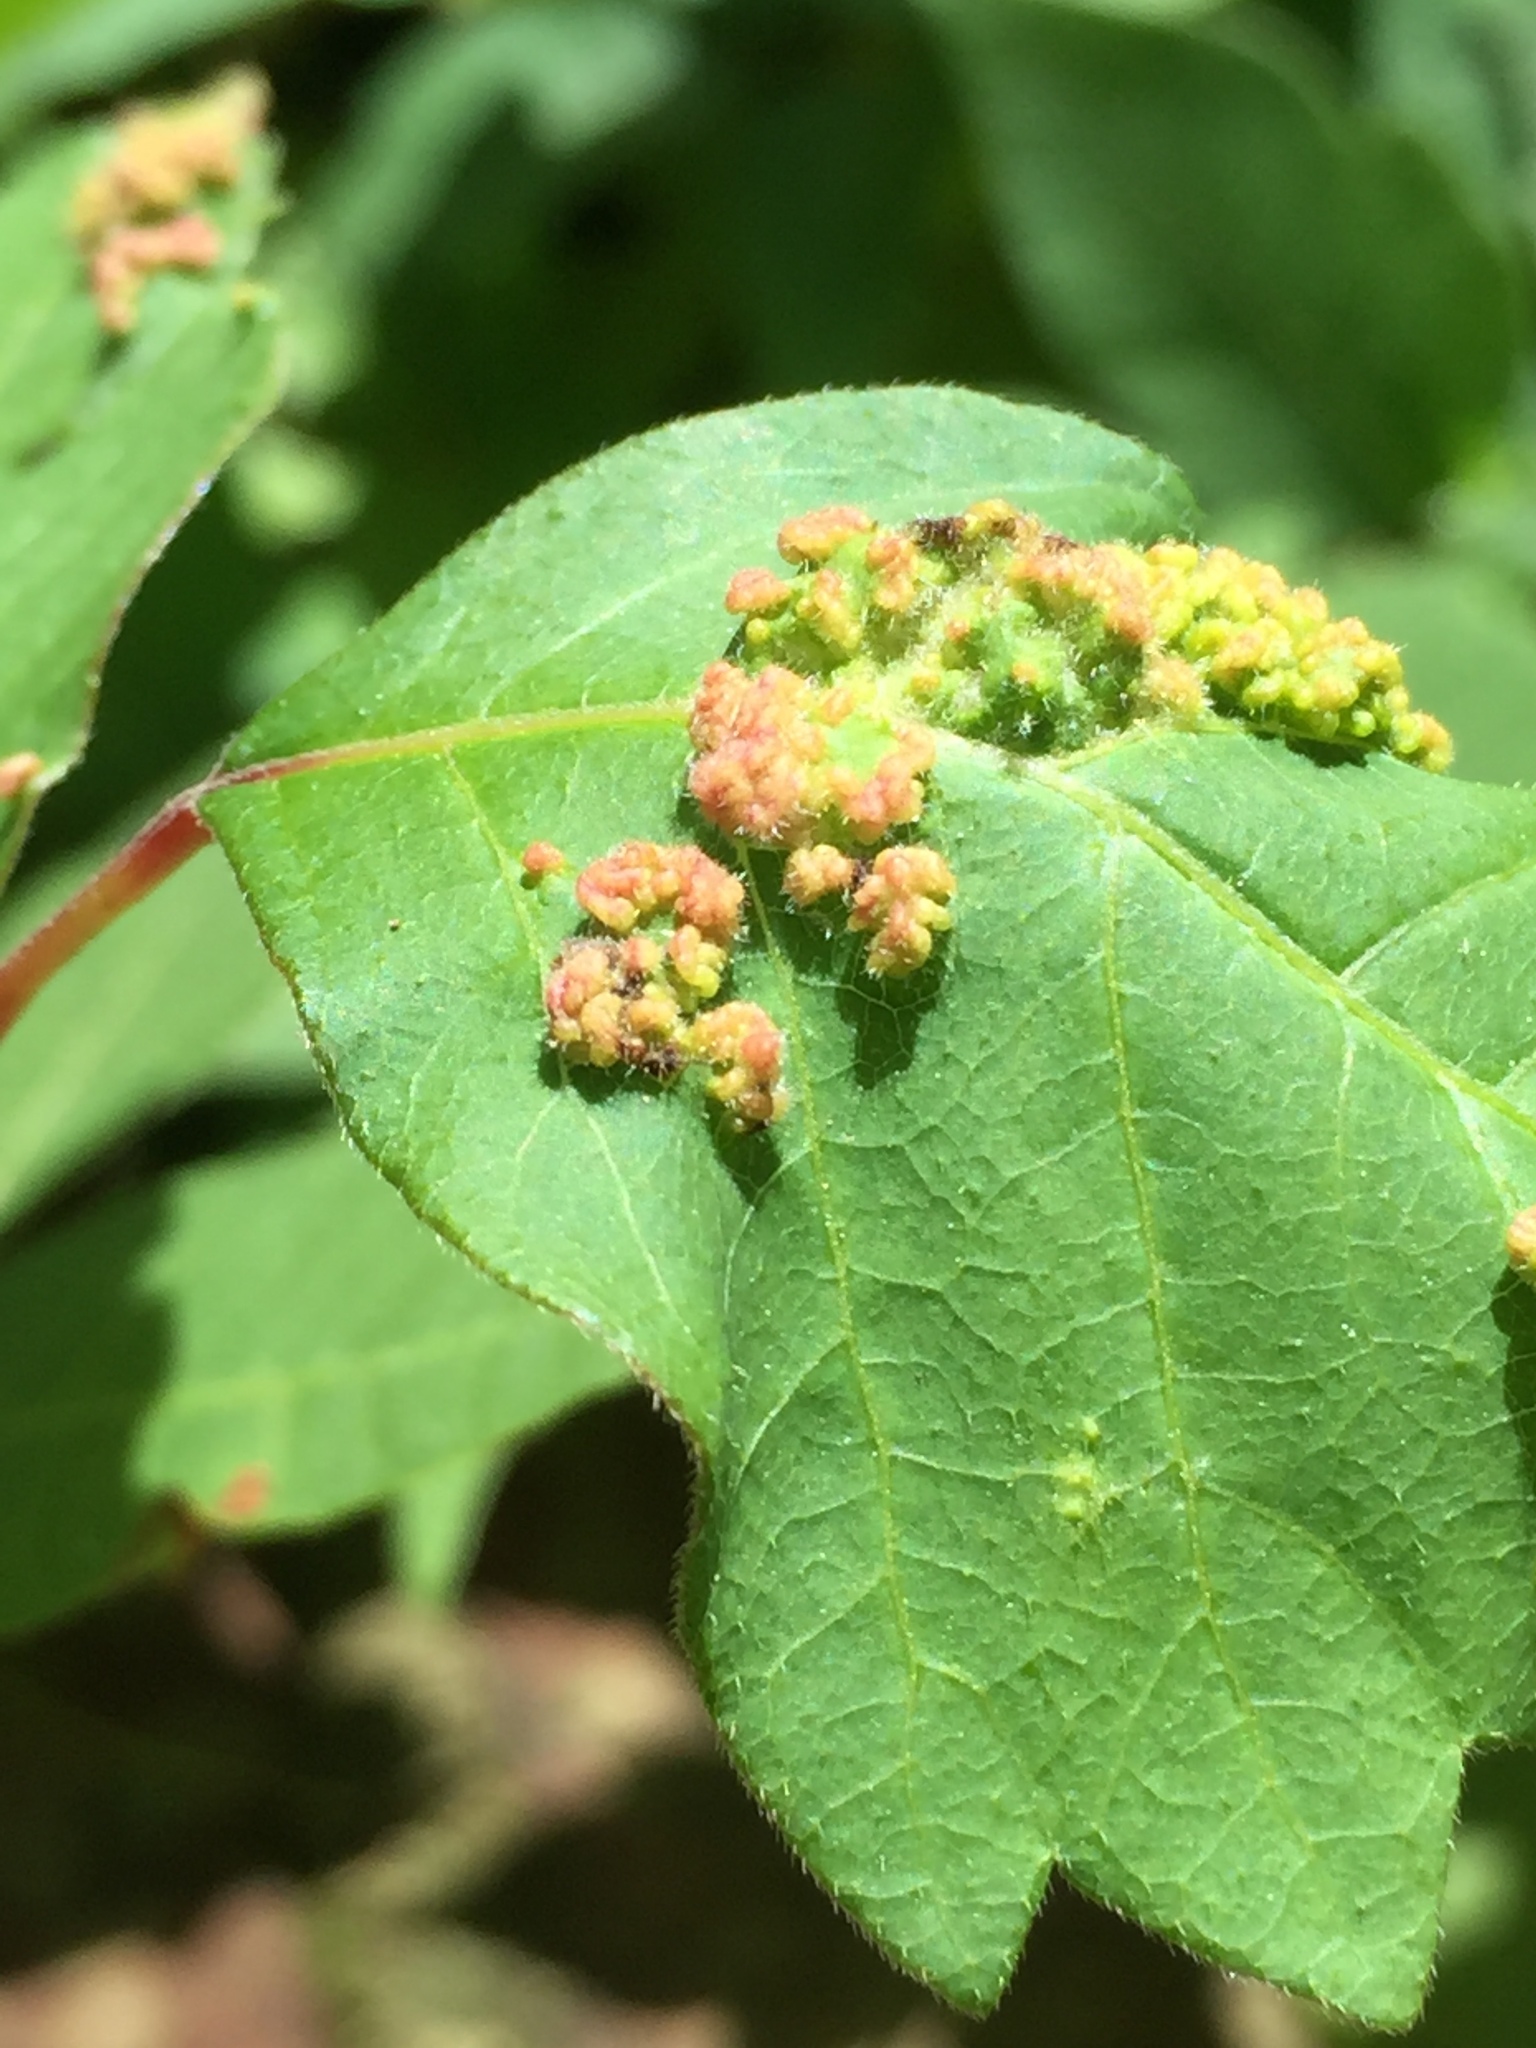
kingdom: Animalia
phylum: Arthropoda
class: Arachnida
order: Trombidiformes
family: Eriophyidae
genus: Aculops
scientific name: Aculops
